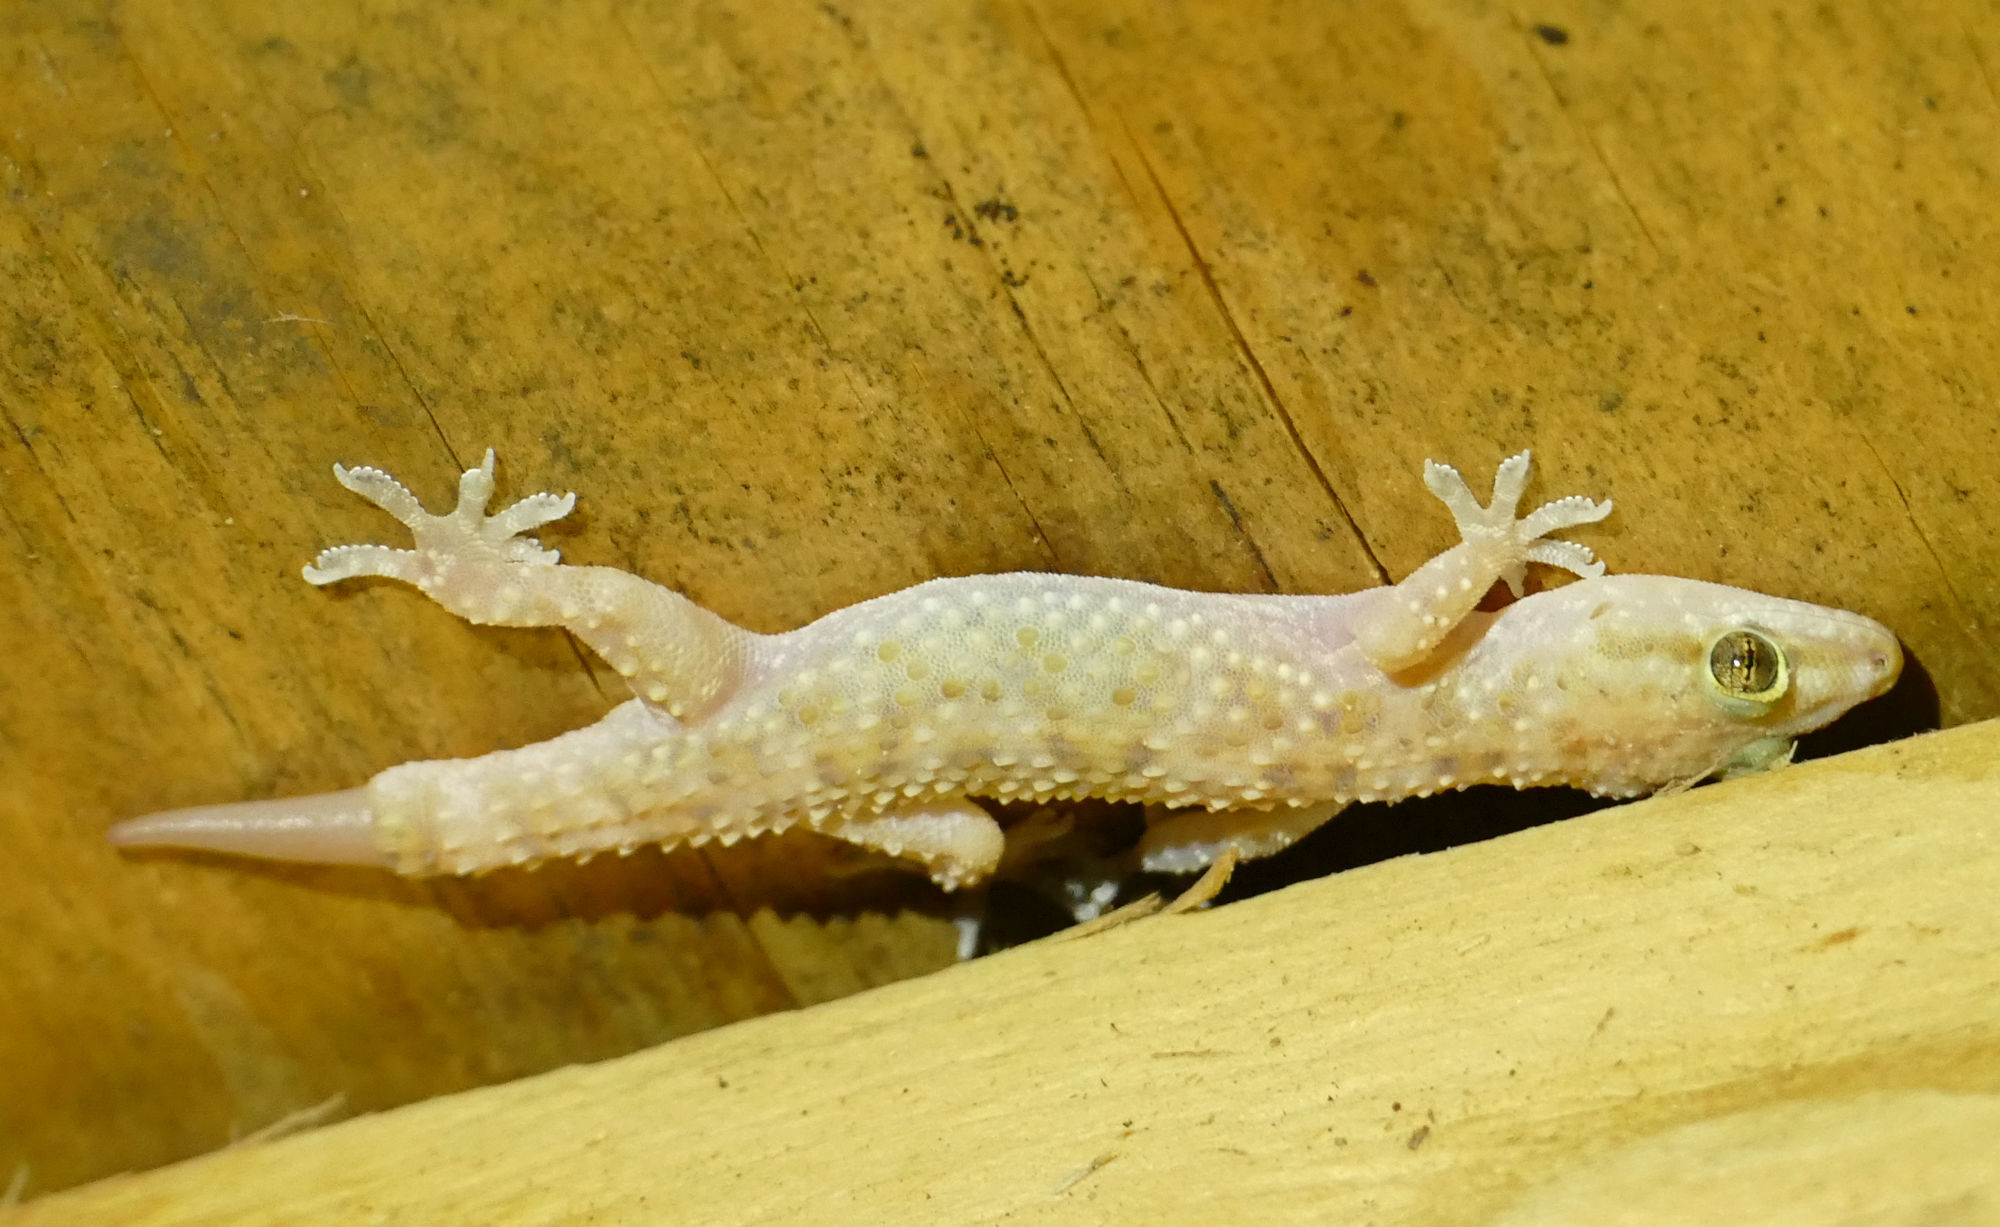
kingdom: Animalia
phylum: Chordata
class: Squamata
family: Gekkonidae
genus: Hemidactylus
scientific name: Hemidactylus turcicus
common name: Turkish gecko
